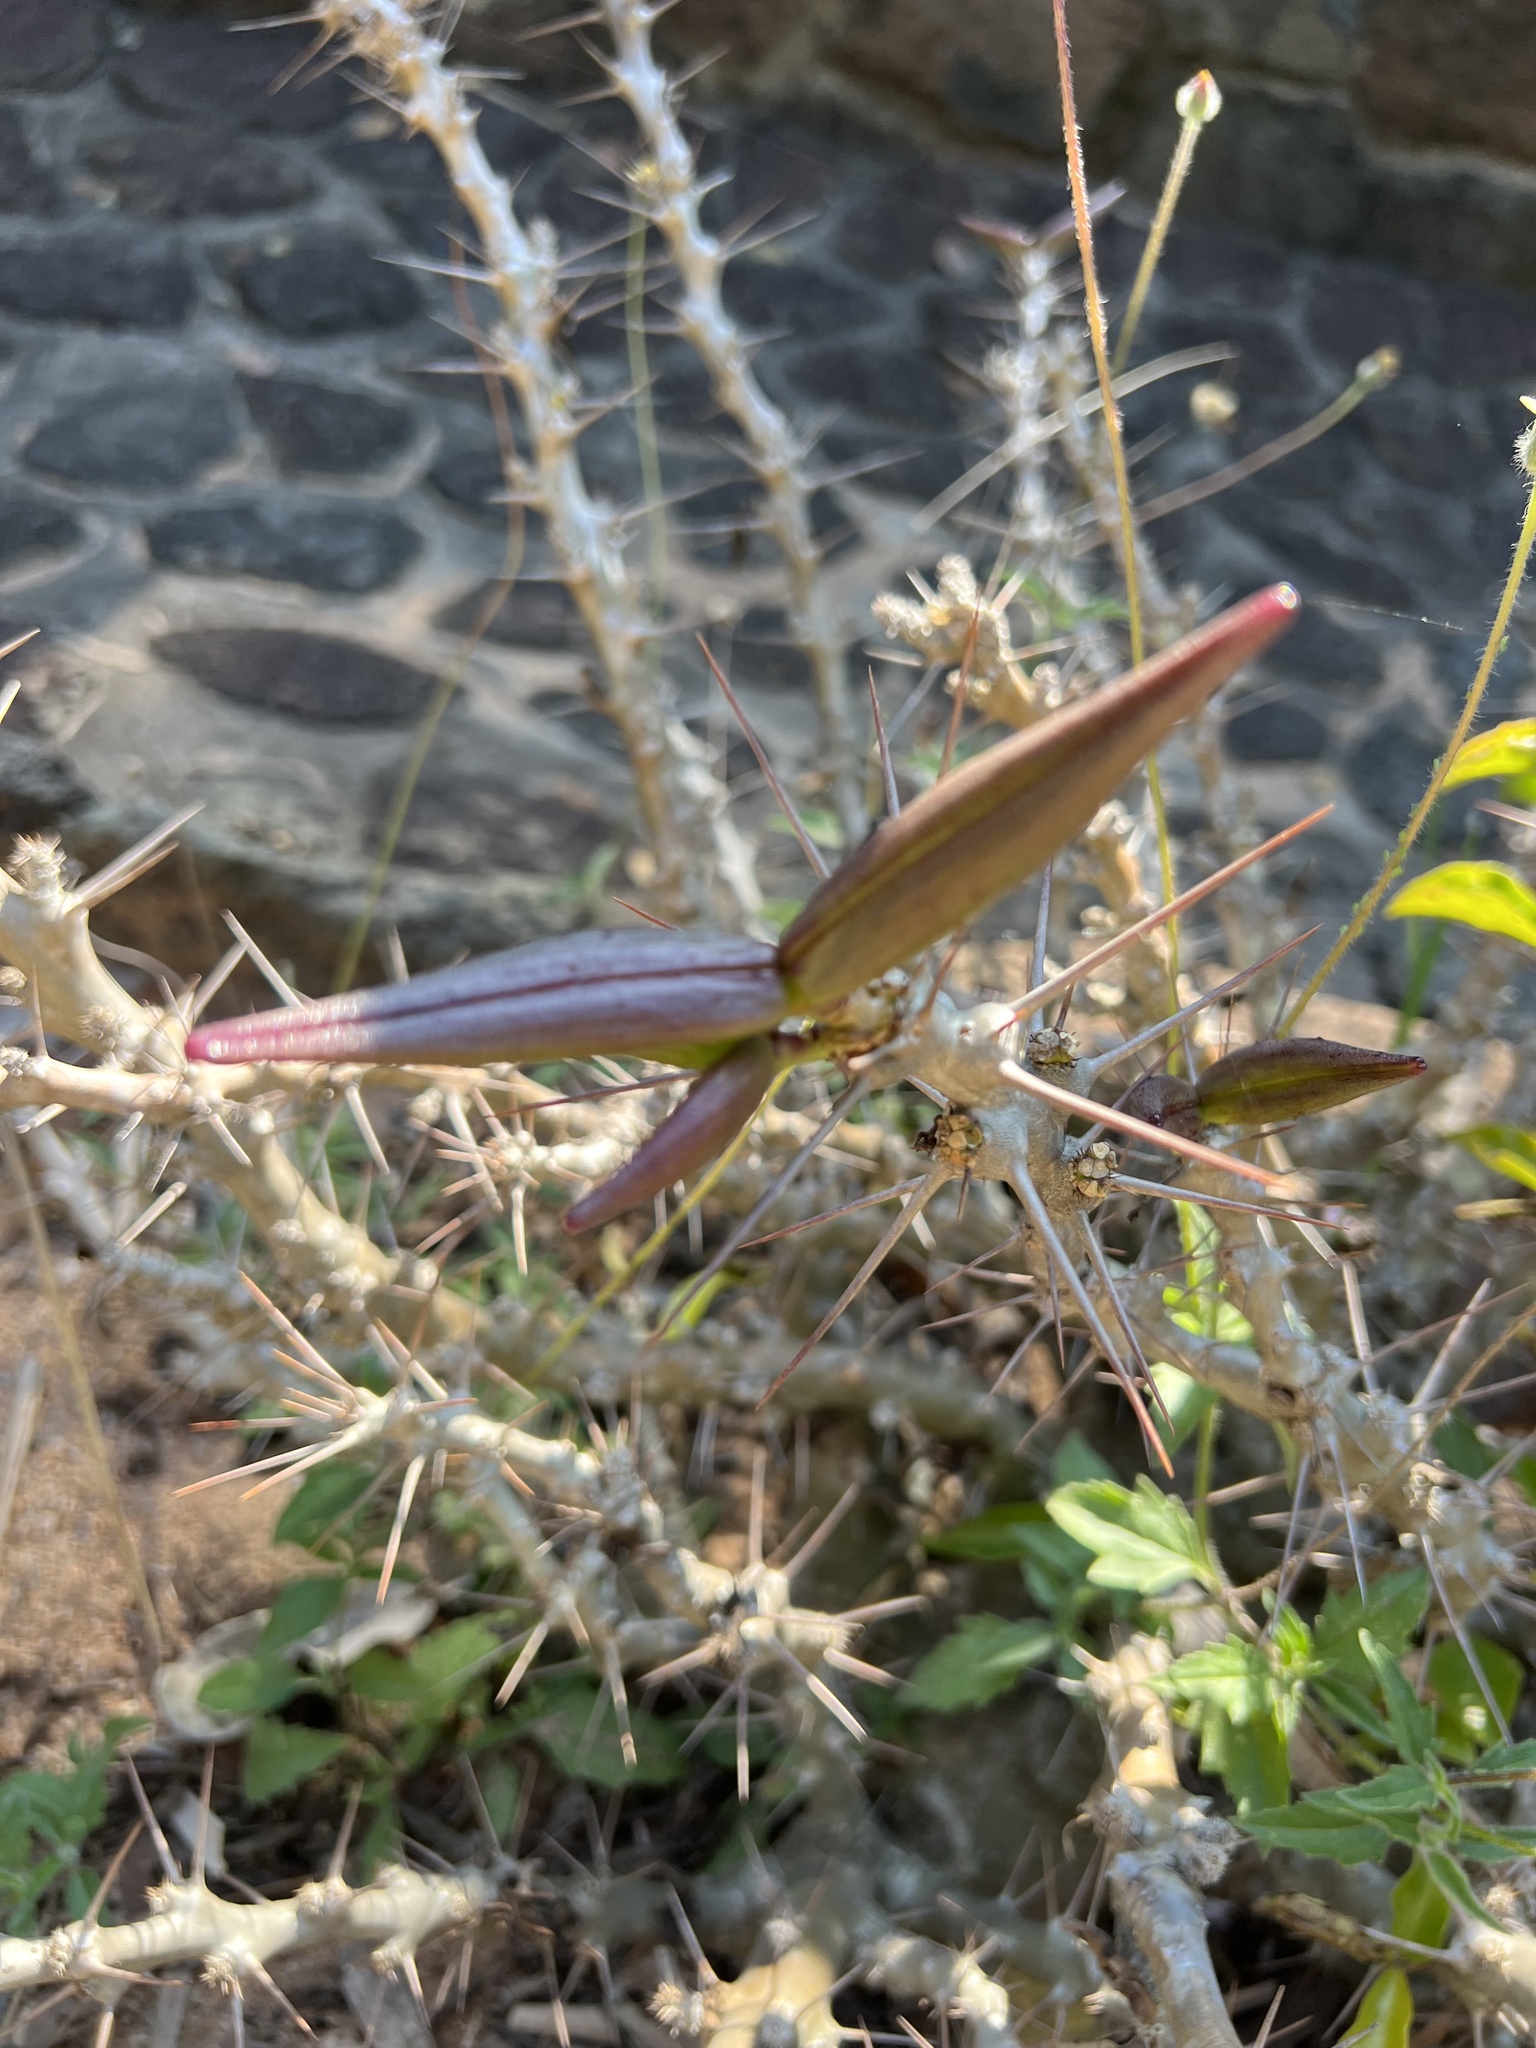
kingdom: Plantae
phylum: Tracheophyta
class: Magnoliopsida
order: Gentianales
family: Apocynaceae
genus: Pachypodium
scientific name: Pachypodium saundersii
